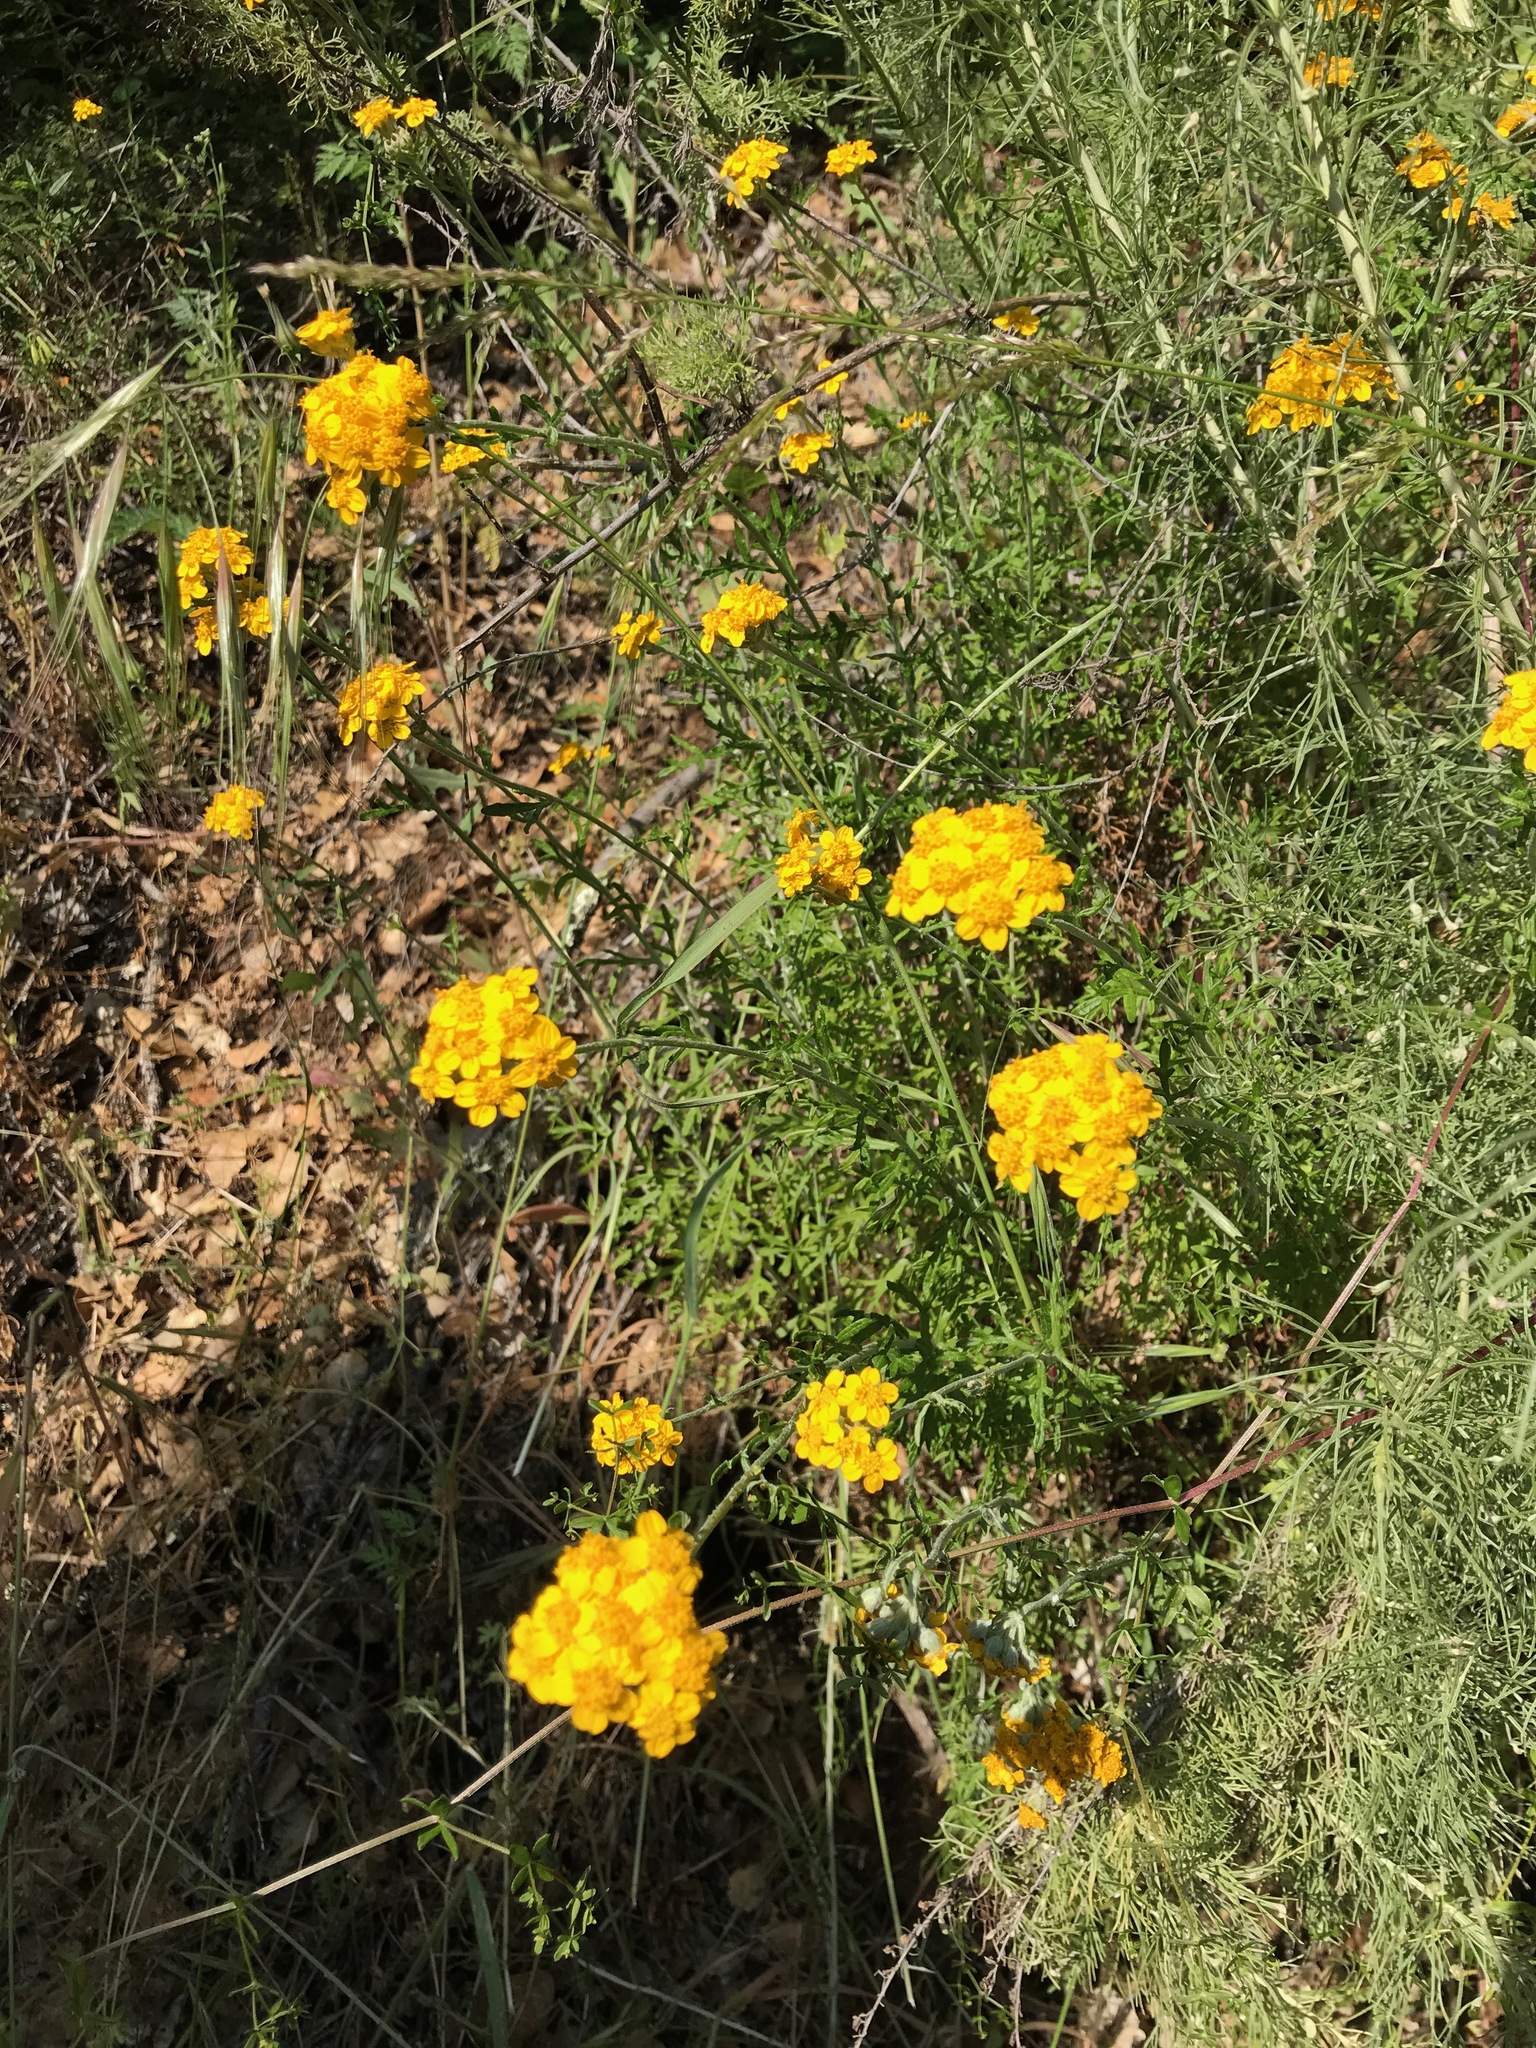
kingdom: Plantae
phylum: Tracheophyta
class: Magnoliopsida
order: Asterales
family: Asteraceae
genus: Eriophyllum
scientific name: Eriophyllum confertiflorum
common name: Golden-yarrow
